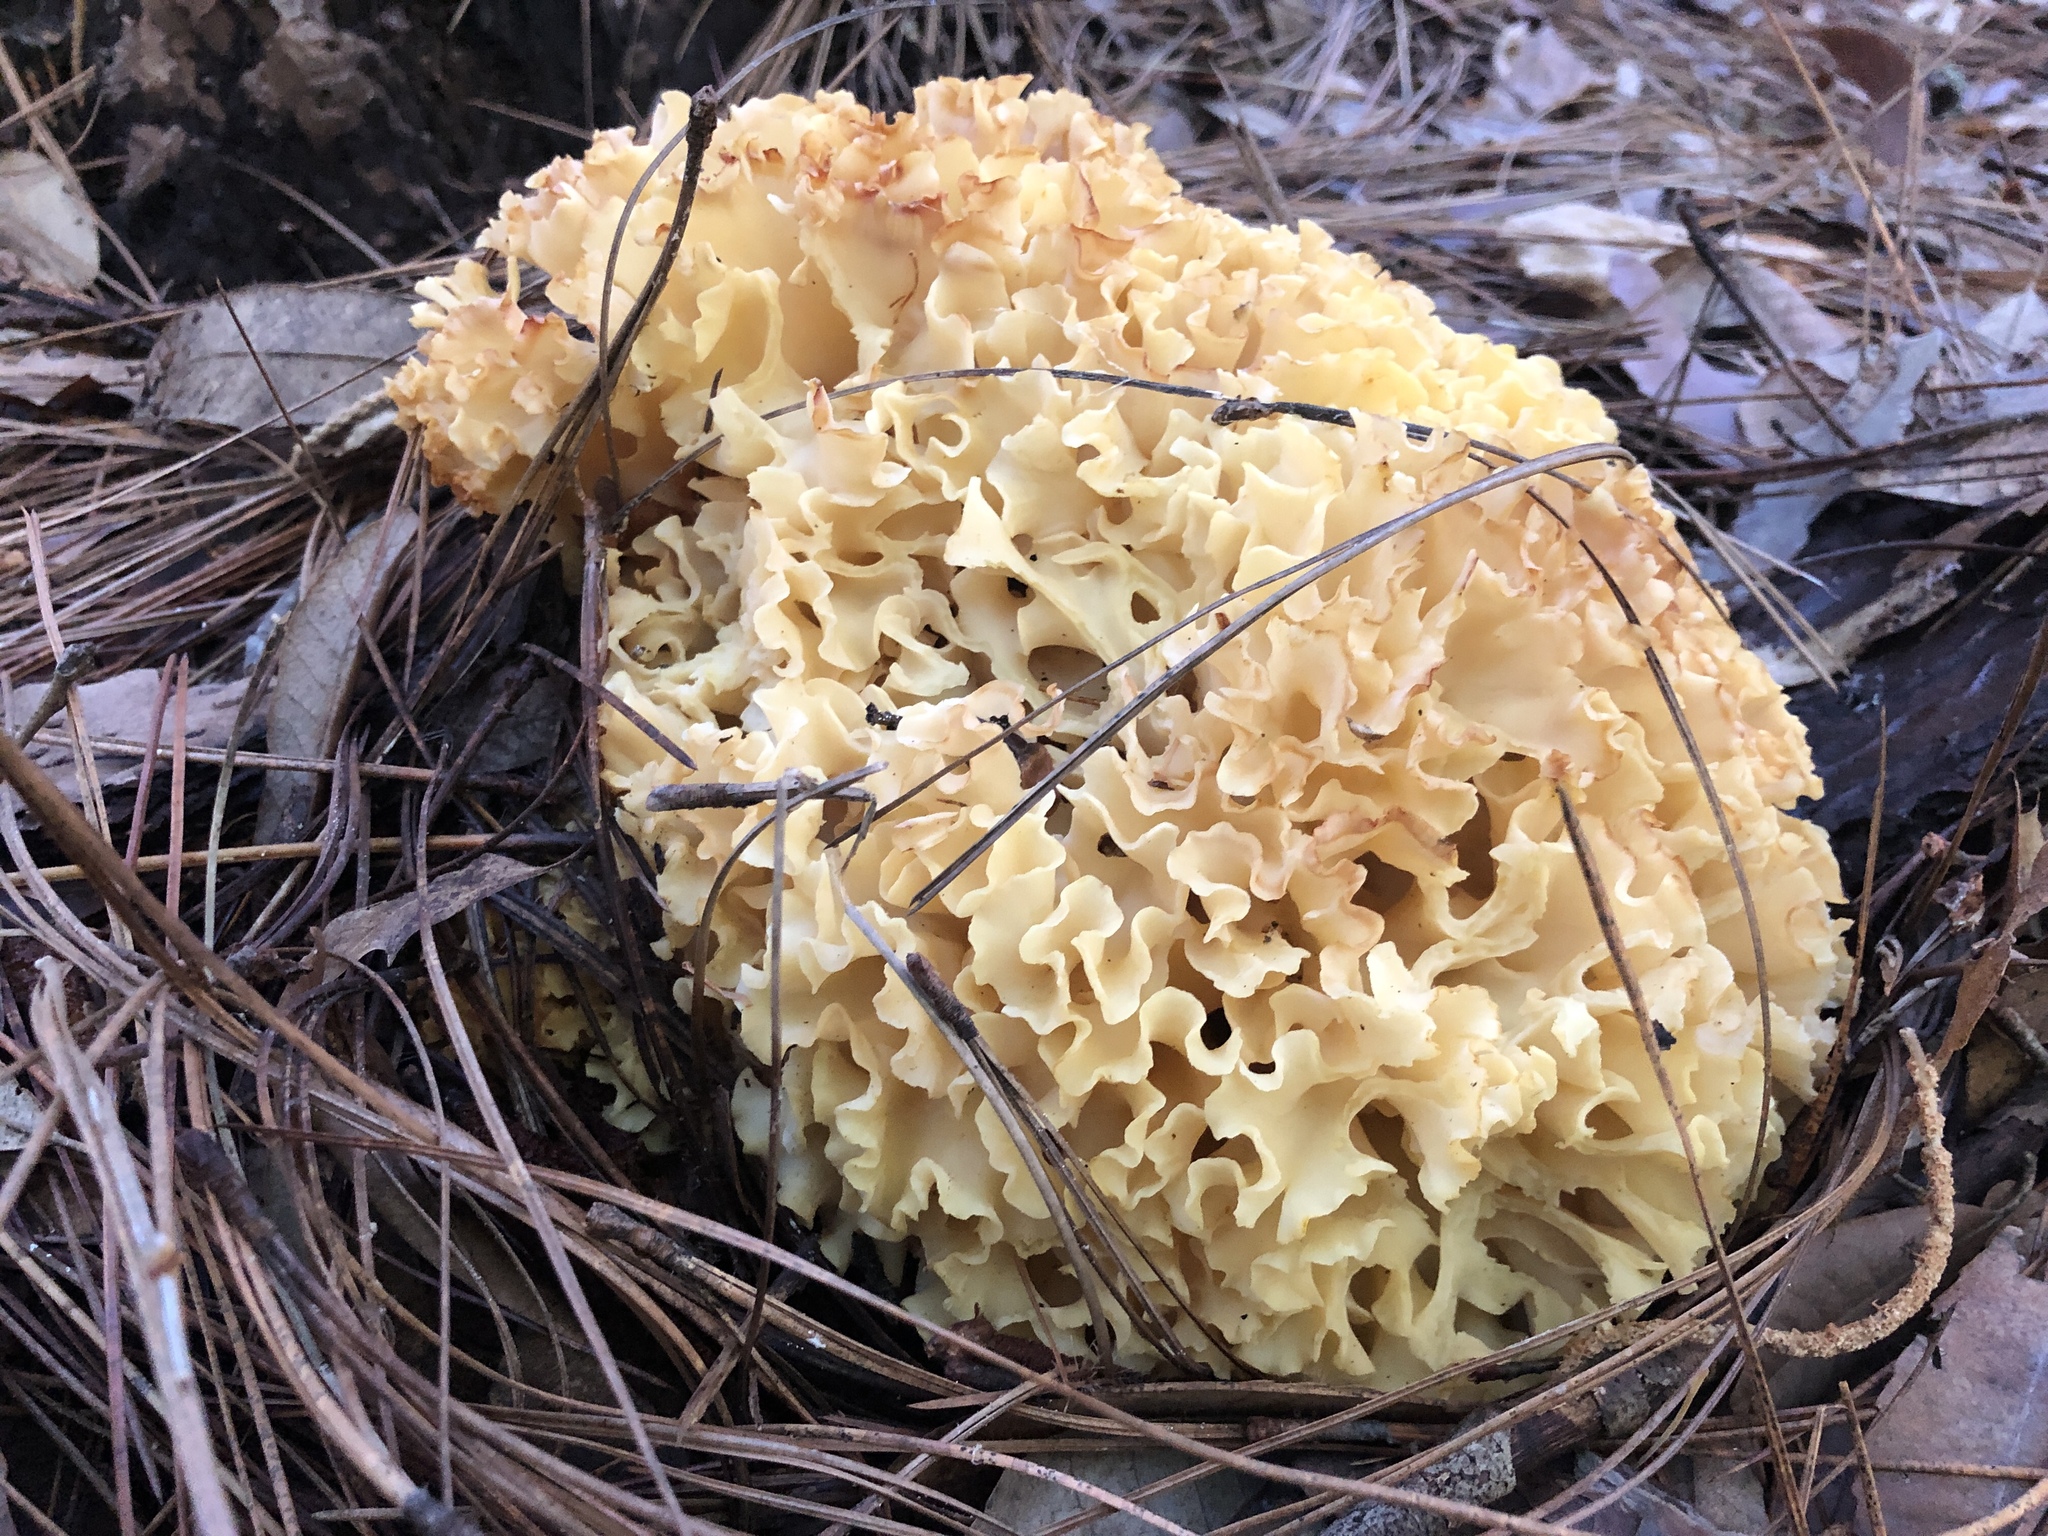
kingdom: Fungi
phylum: Basidiomycota
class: Agaricomycetes
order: Polyporales
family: Sparassidaceae
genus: Sparassis
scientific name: Sparassis radicata
